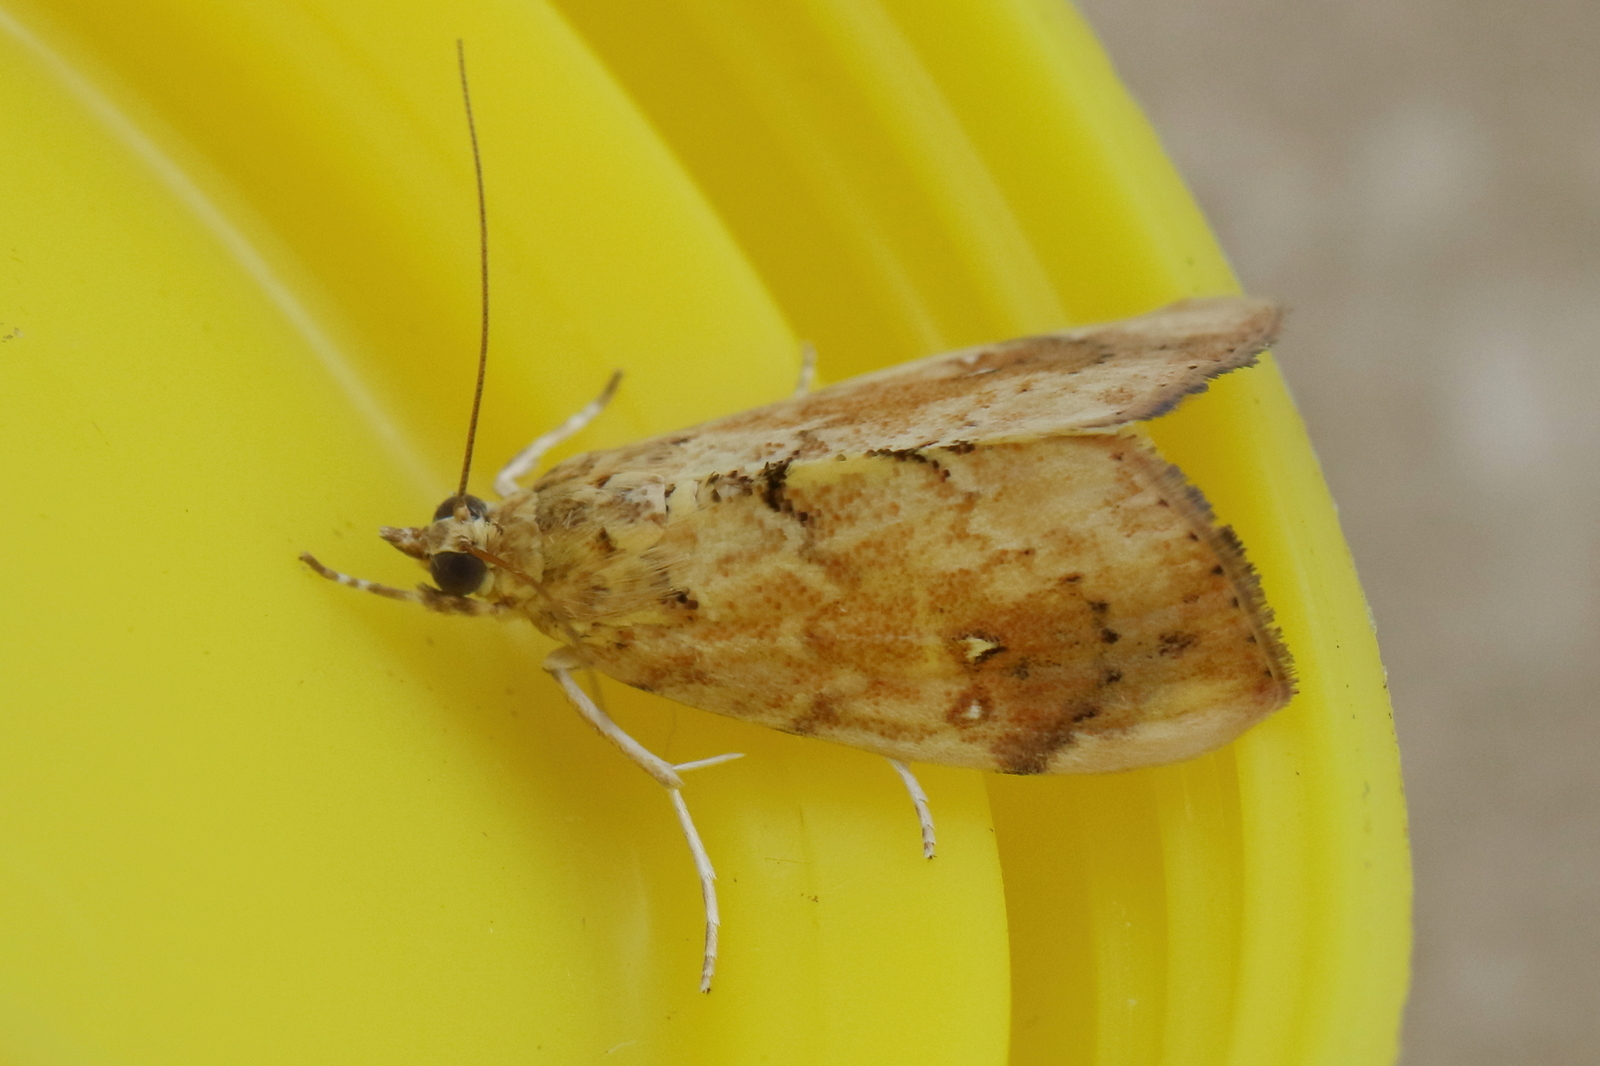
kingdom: Animalia
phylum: Arthropoda
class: Insecta
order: Lepidoptera
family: Crambidae
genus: Crocidolomia
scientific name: Crocidolomia pavonana
